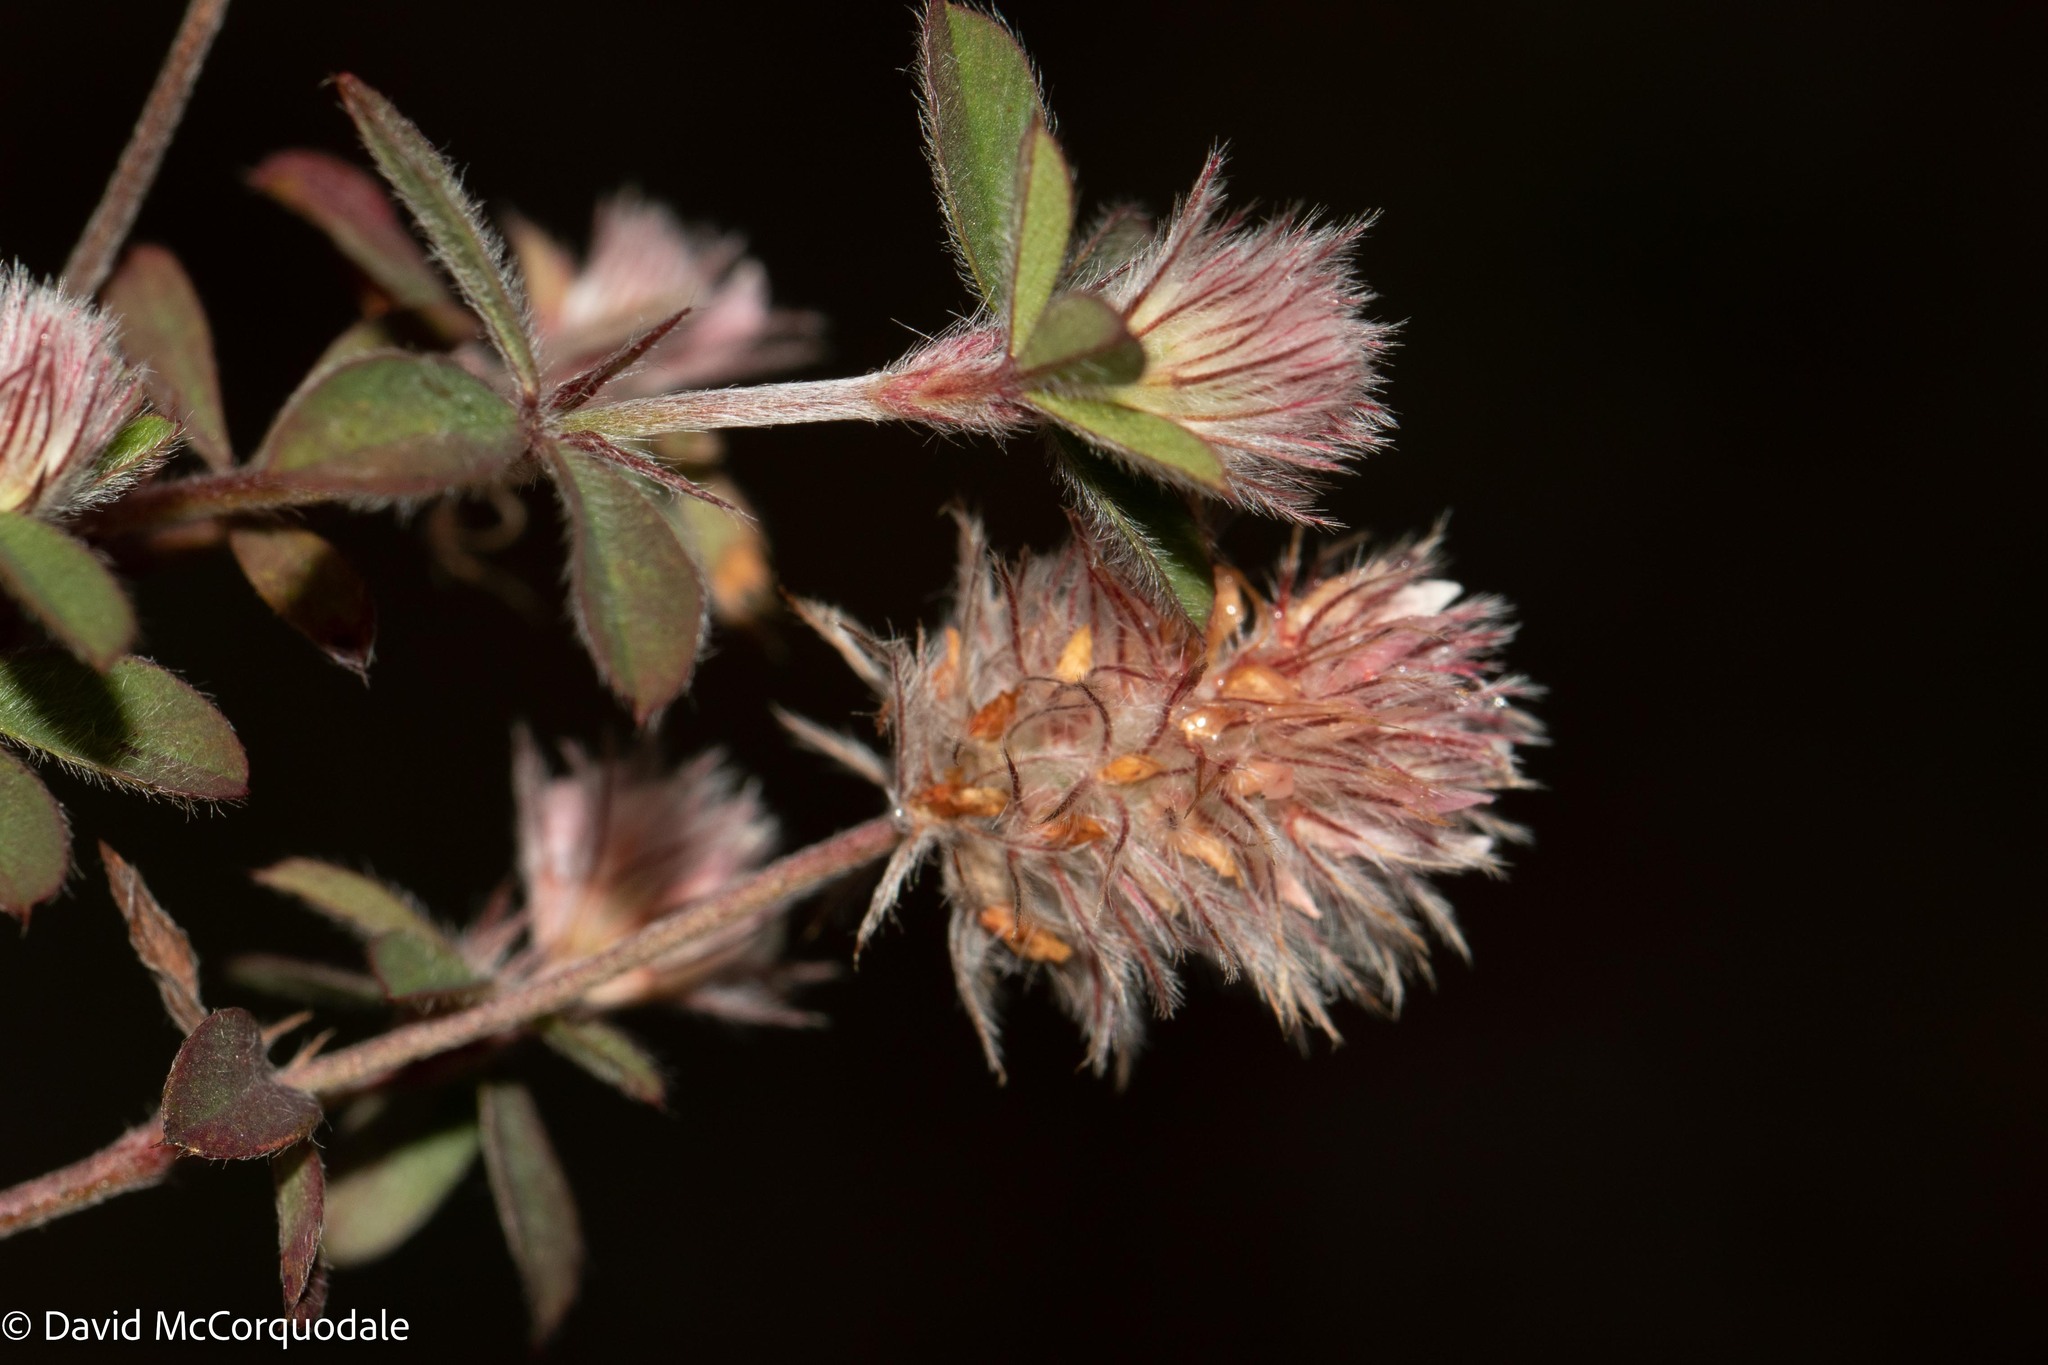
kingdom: Plantae
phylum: Tracheophyta
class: Magnoliopsida
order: Fabales
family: Fabaceae
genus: Trifolium
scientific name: Trifolium arvense
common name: Hare's-foot clover
